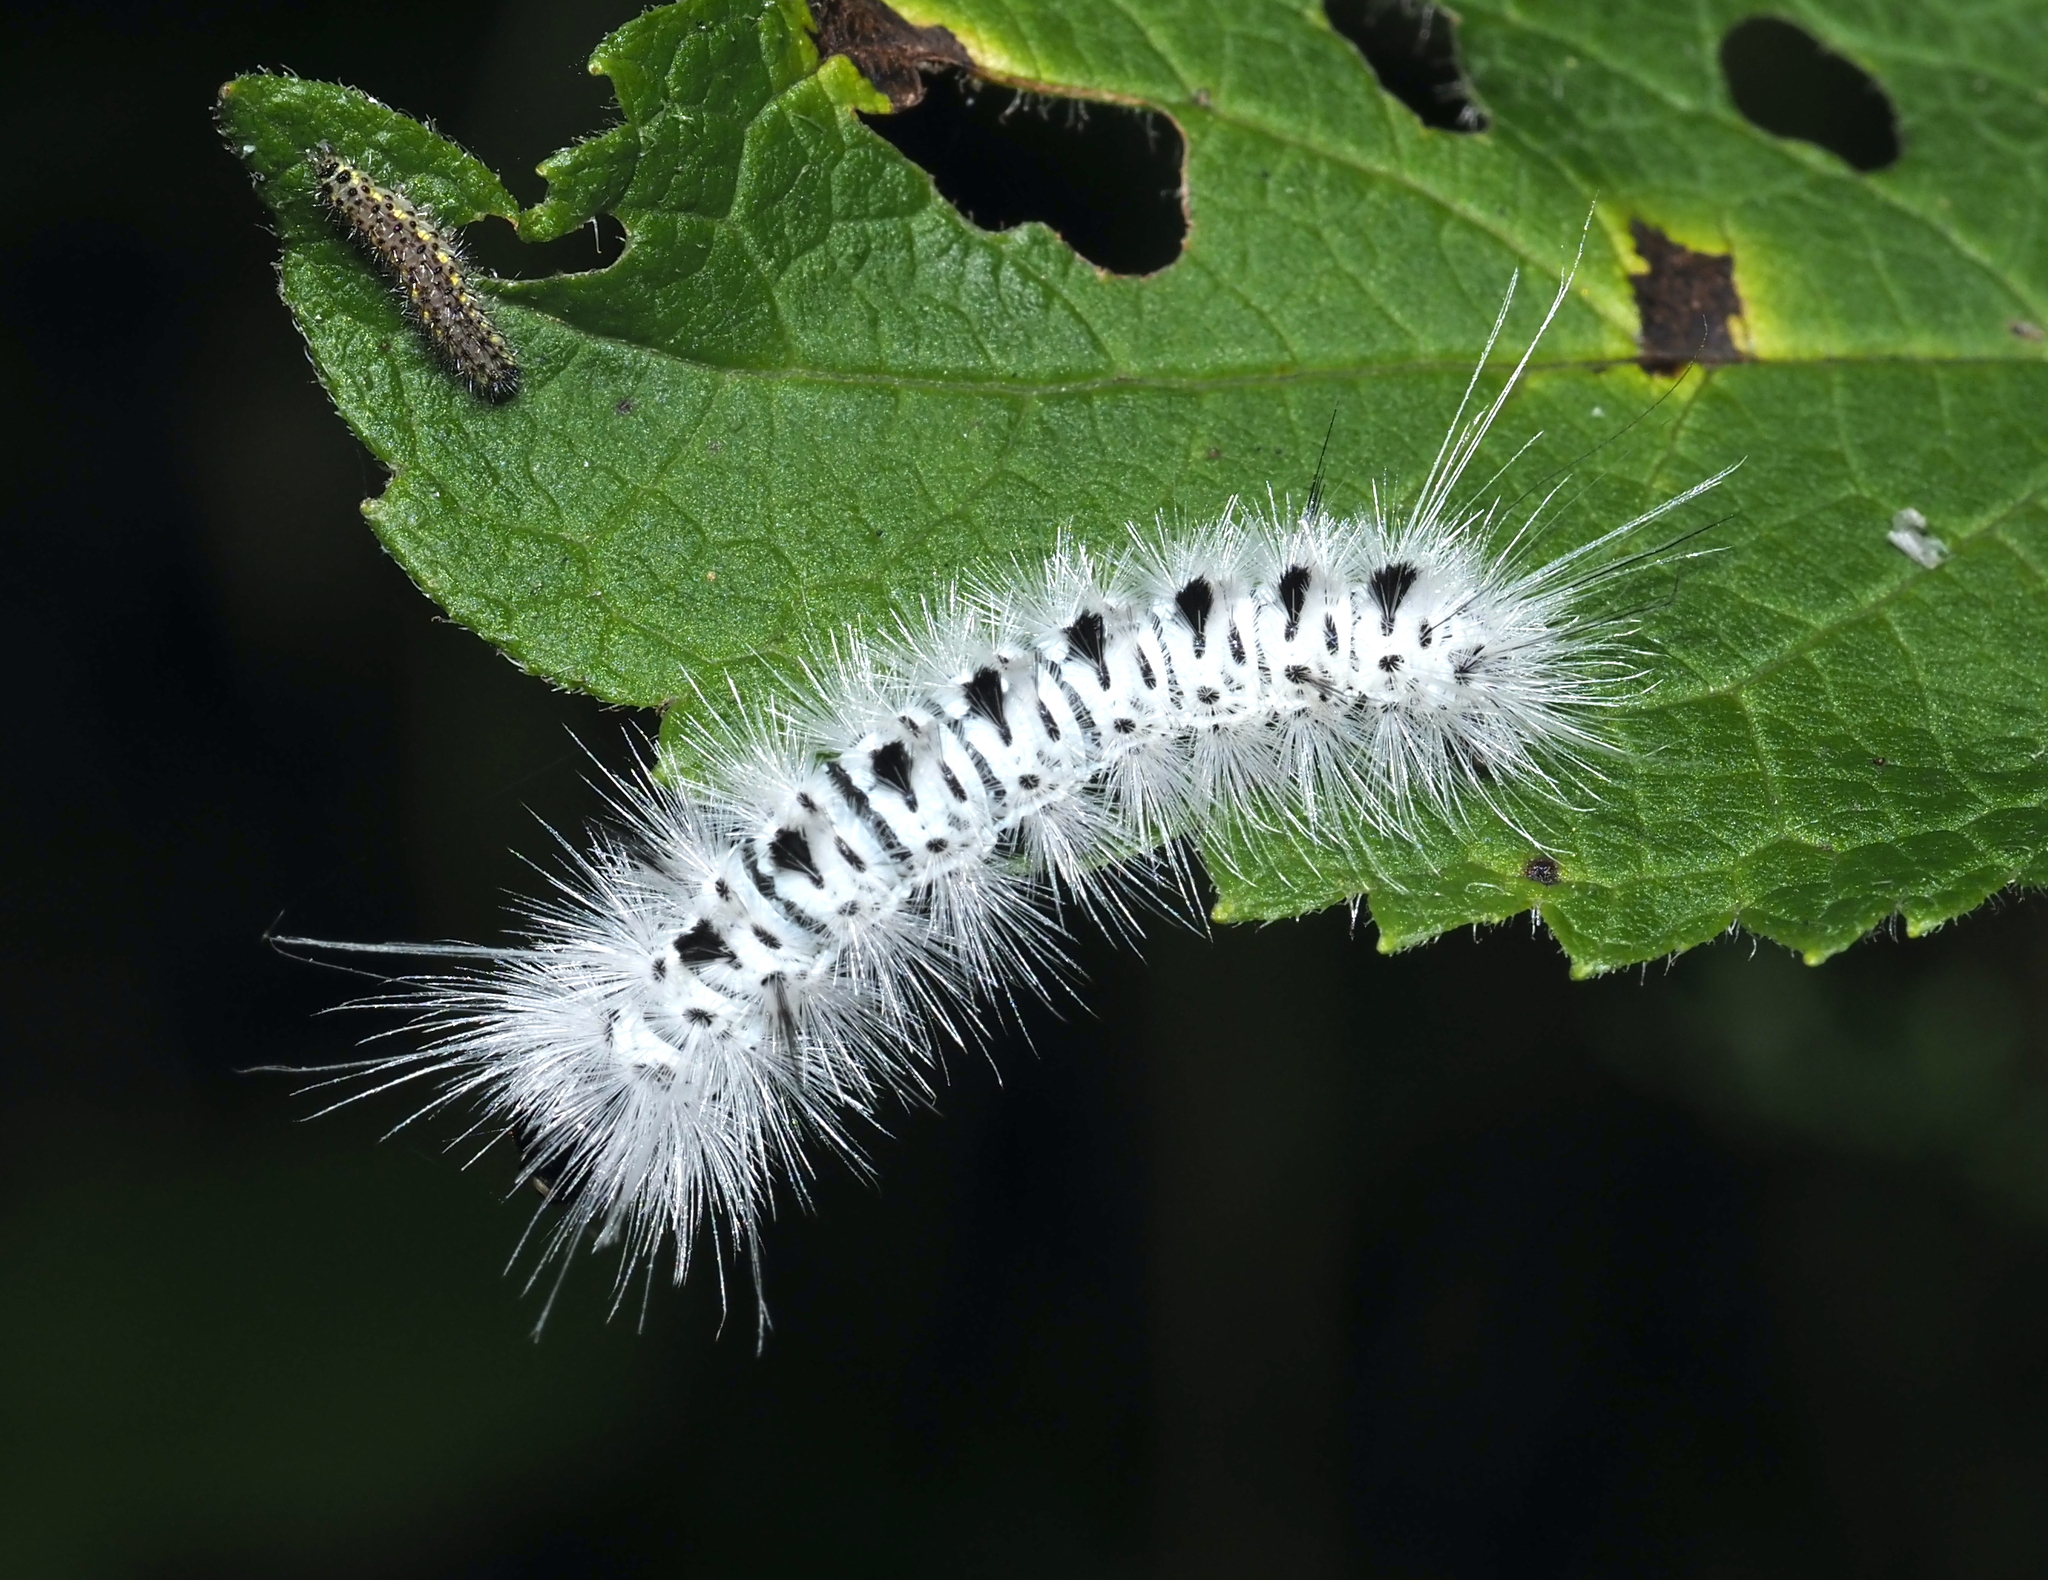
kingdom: Animalia
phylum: Arthropoda
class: Insecta
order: Lepidoptera
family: Erebidae
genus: Lophocampa
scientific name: Lophocampa caryae
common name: Hickory tussock moth
